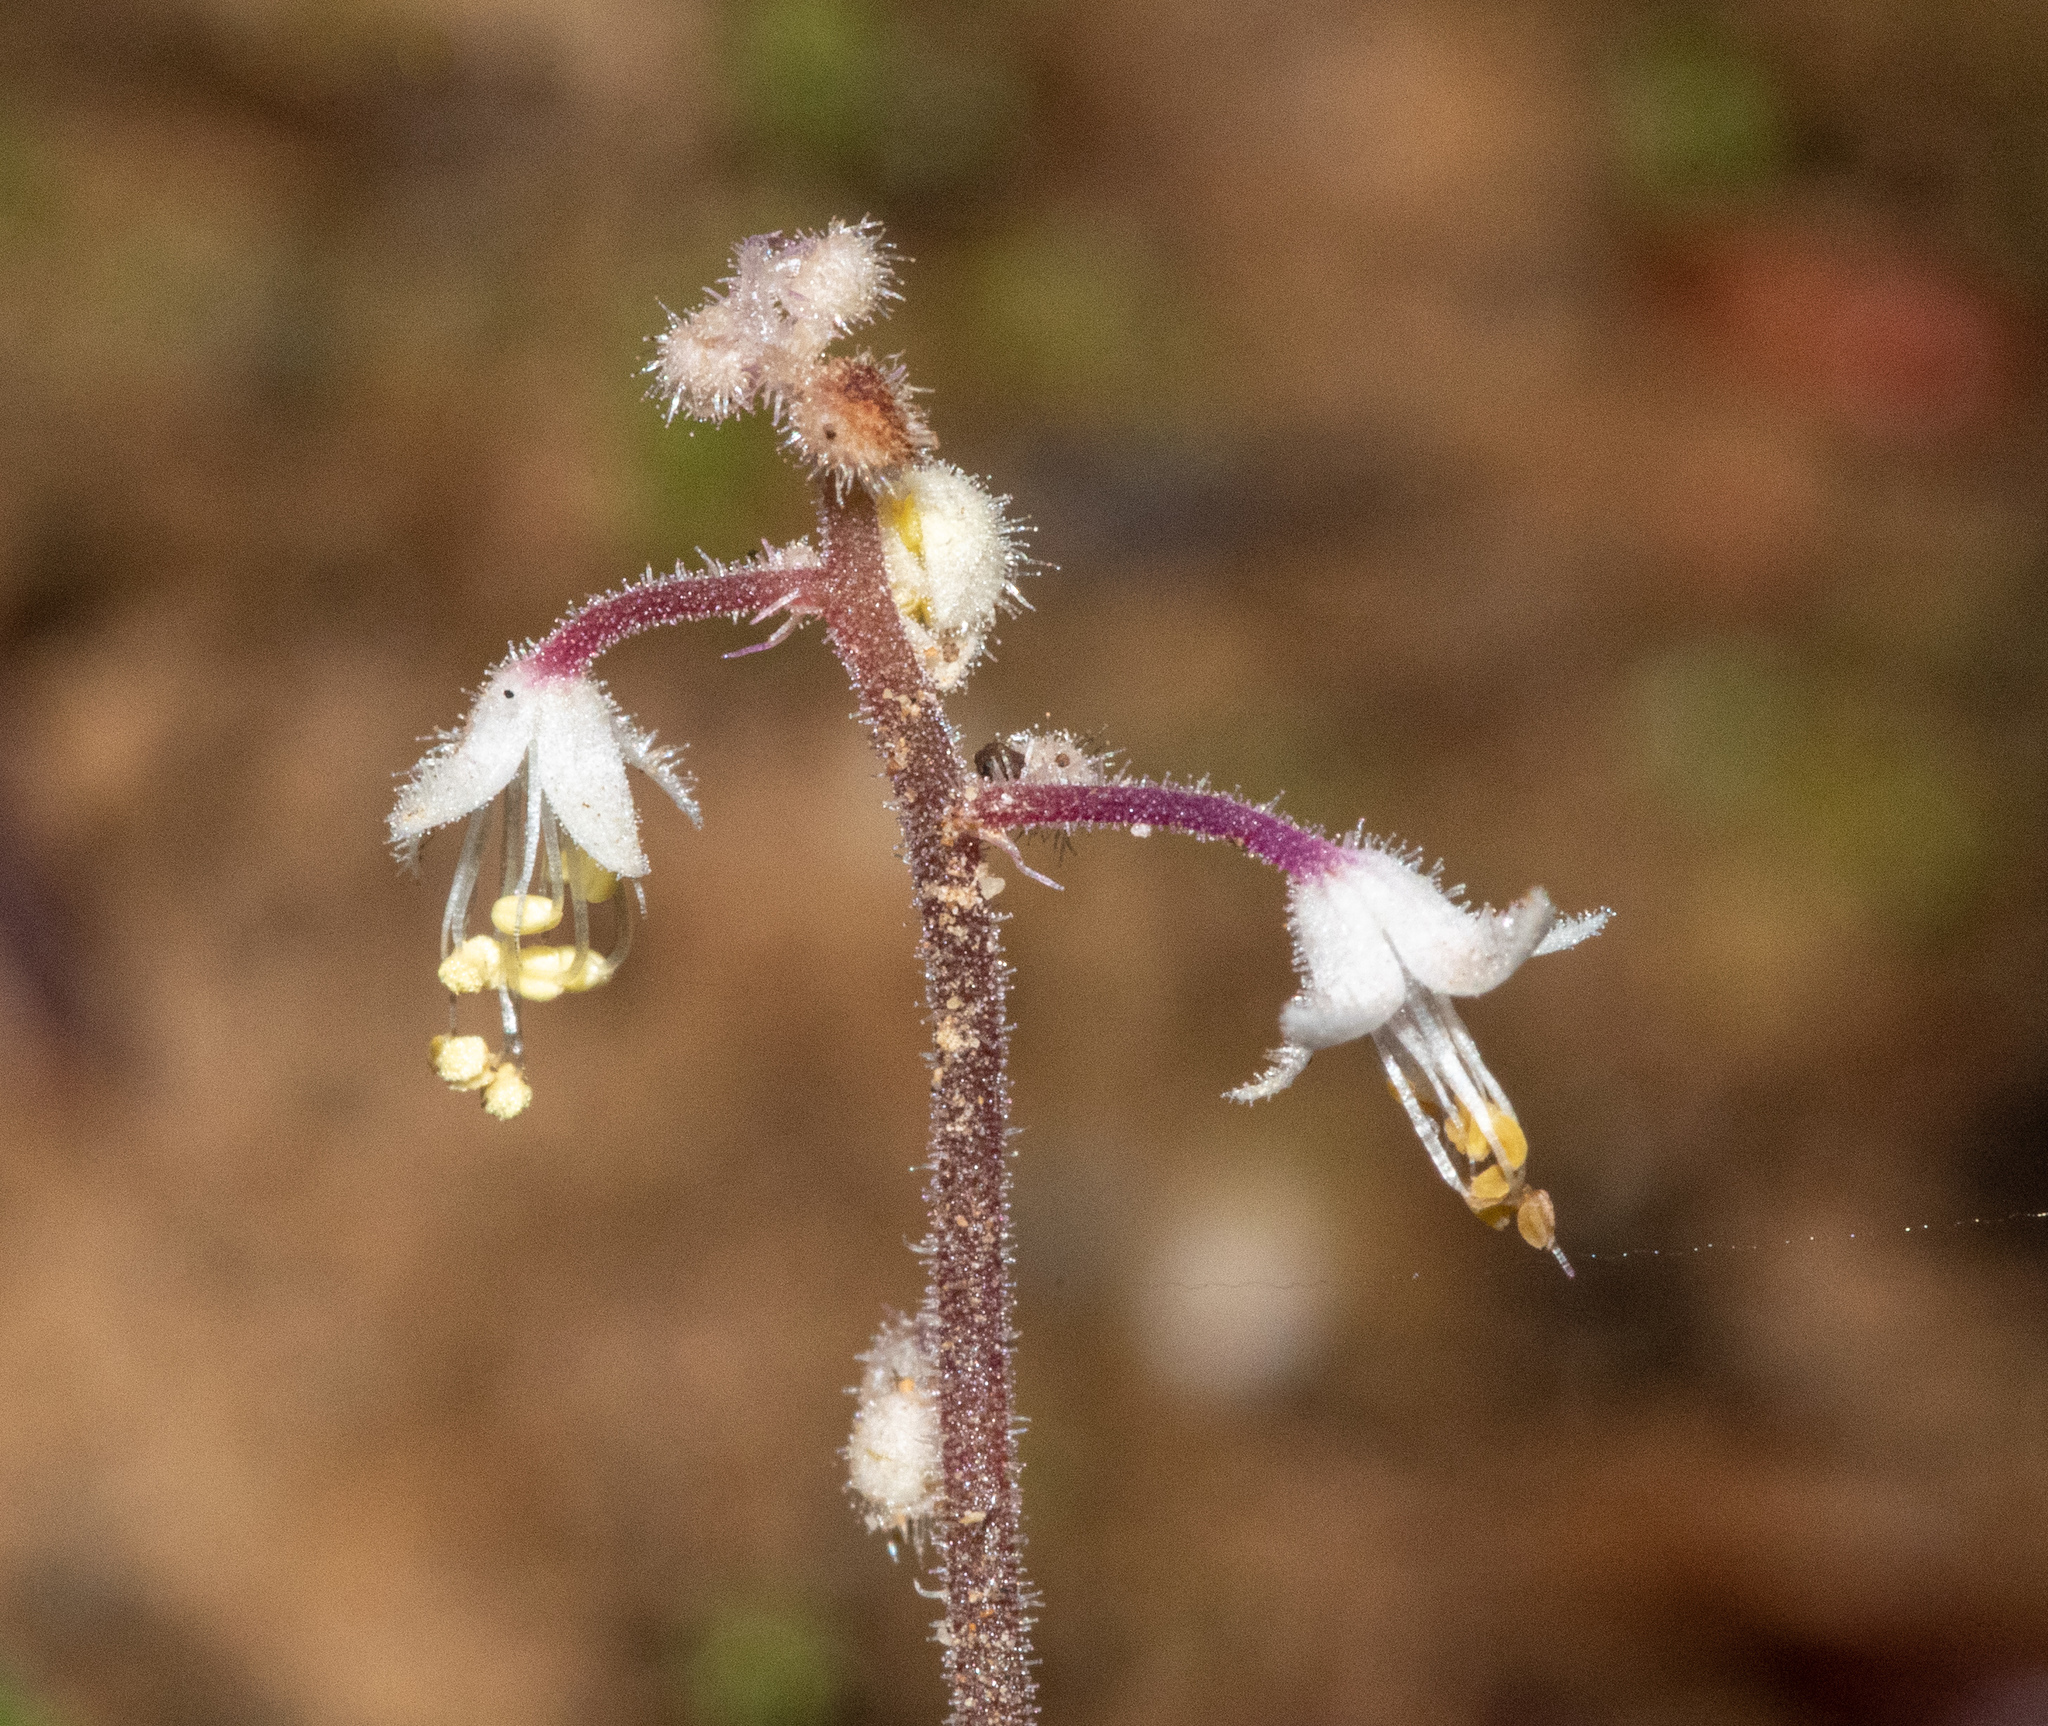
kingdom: Plantae
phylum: Tracheophyta
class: Magnoliopsida
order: Saxifragales
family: Saxifragaceae
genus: Tiarella
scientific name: Tiarella trifoliata
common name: Sugar-scoop
